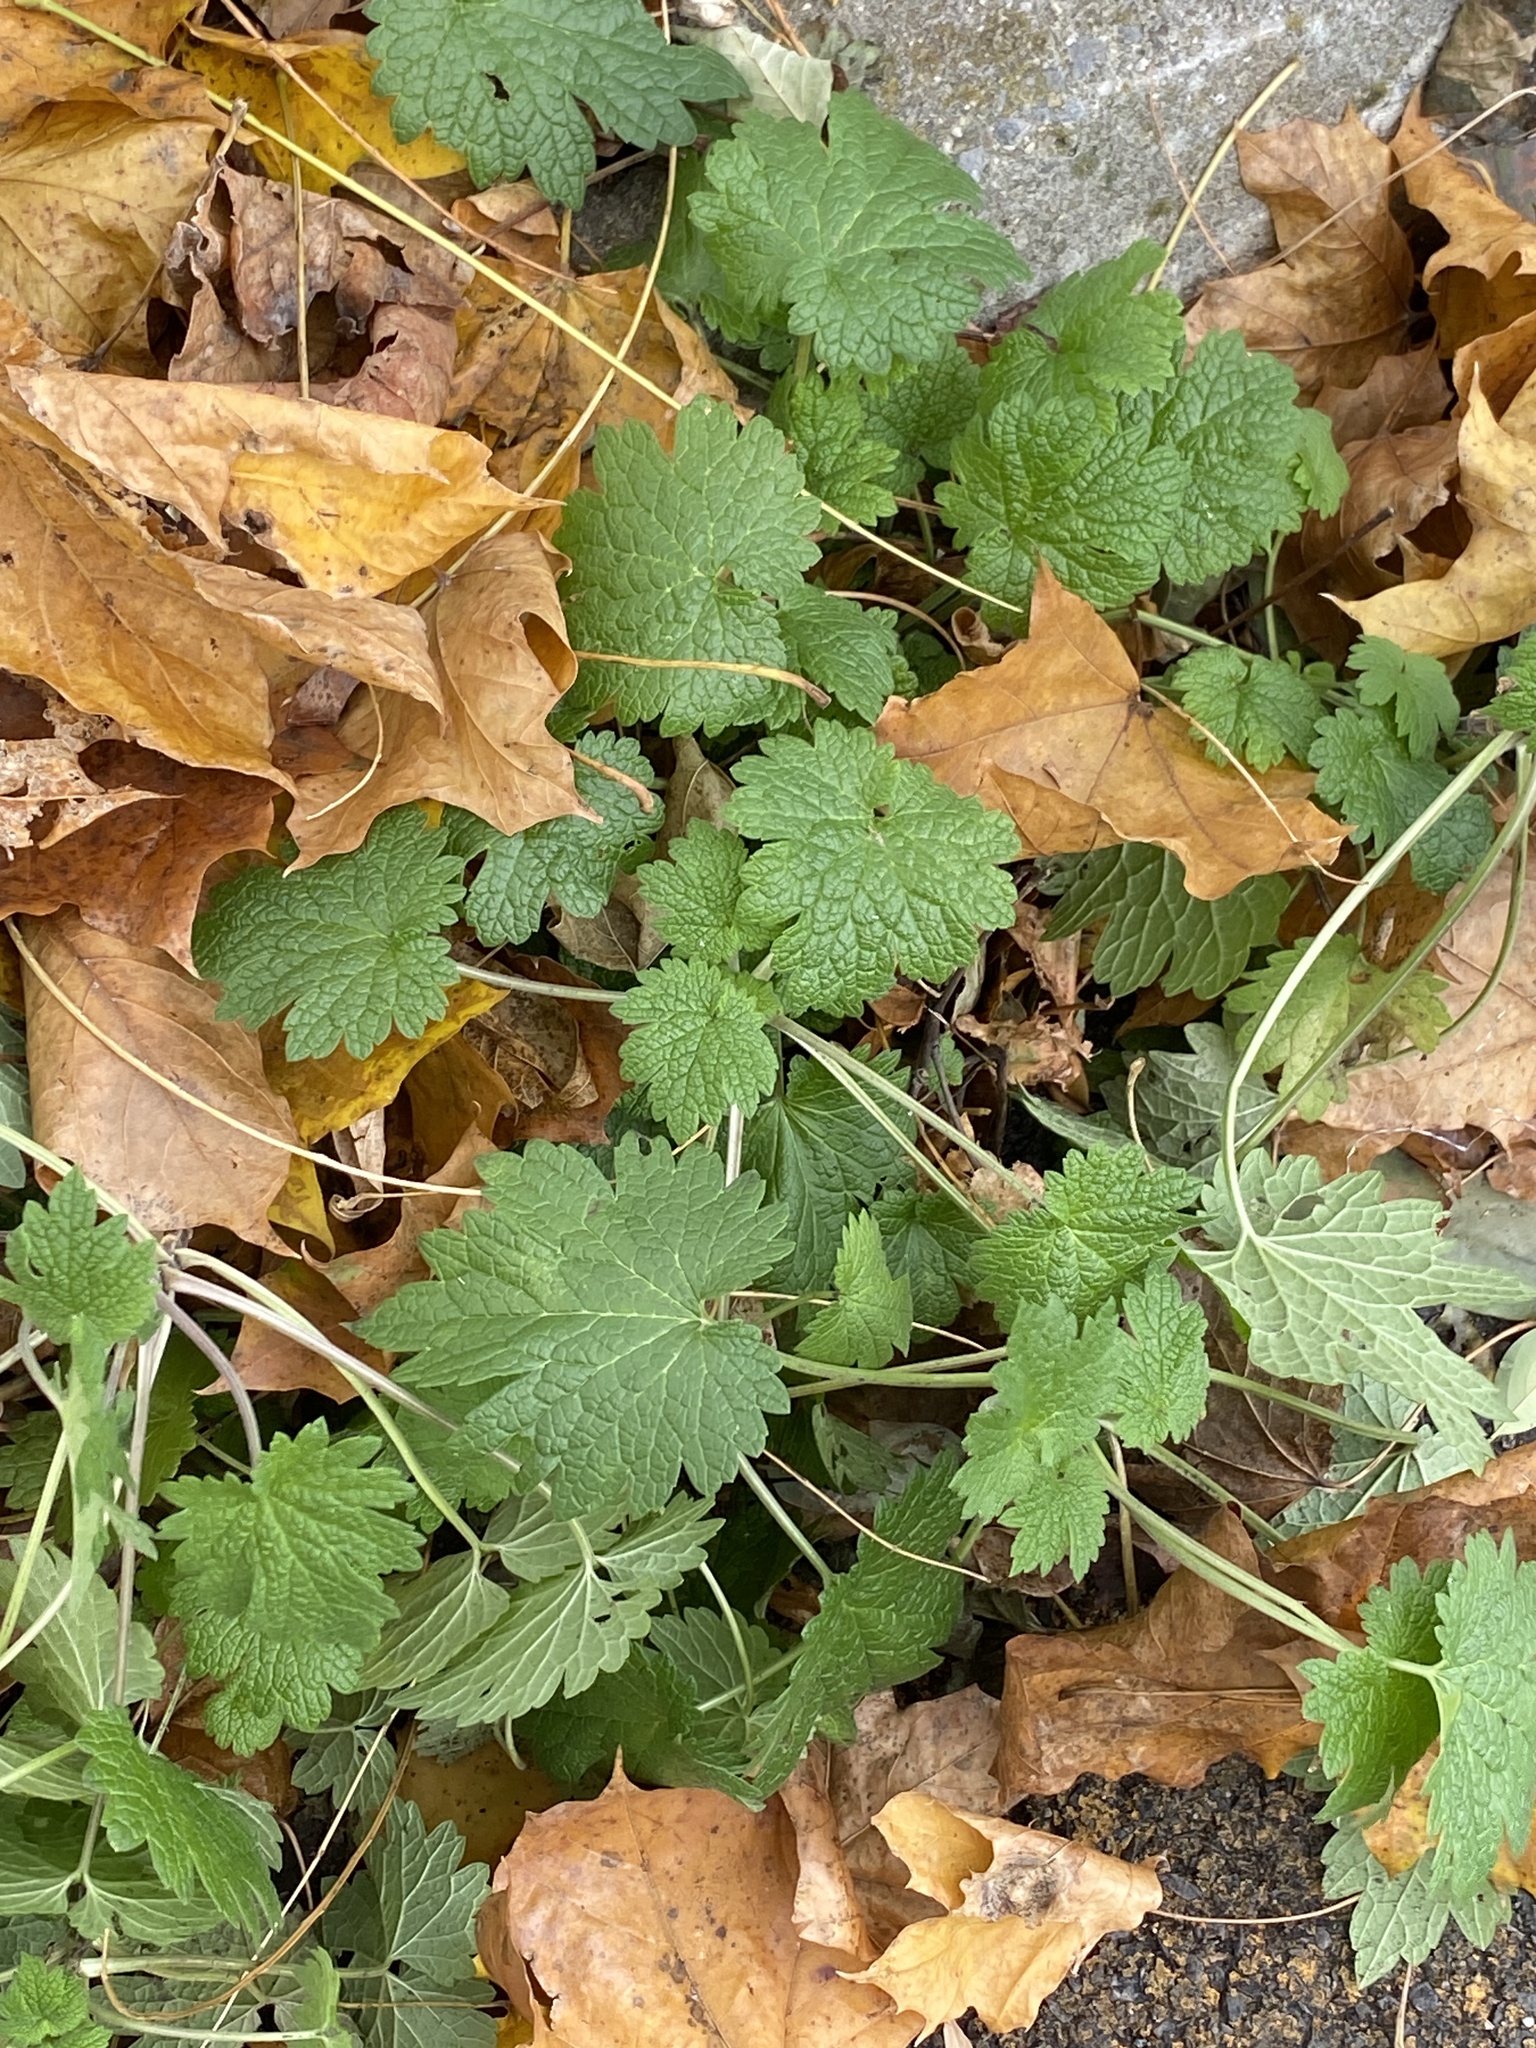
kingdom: Plantae
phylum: Tracheophyta
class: Magnoliopsida
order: Lamiales
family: Lamiaceae
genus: Leonurus
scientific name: Leonurus cardiaca
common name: Motherwort
